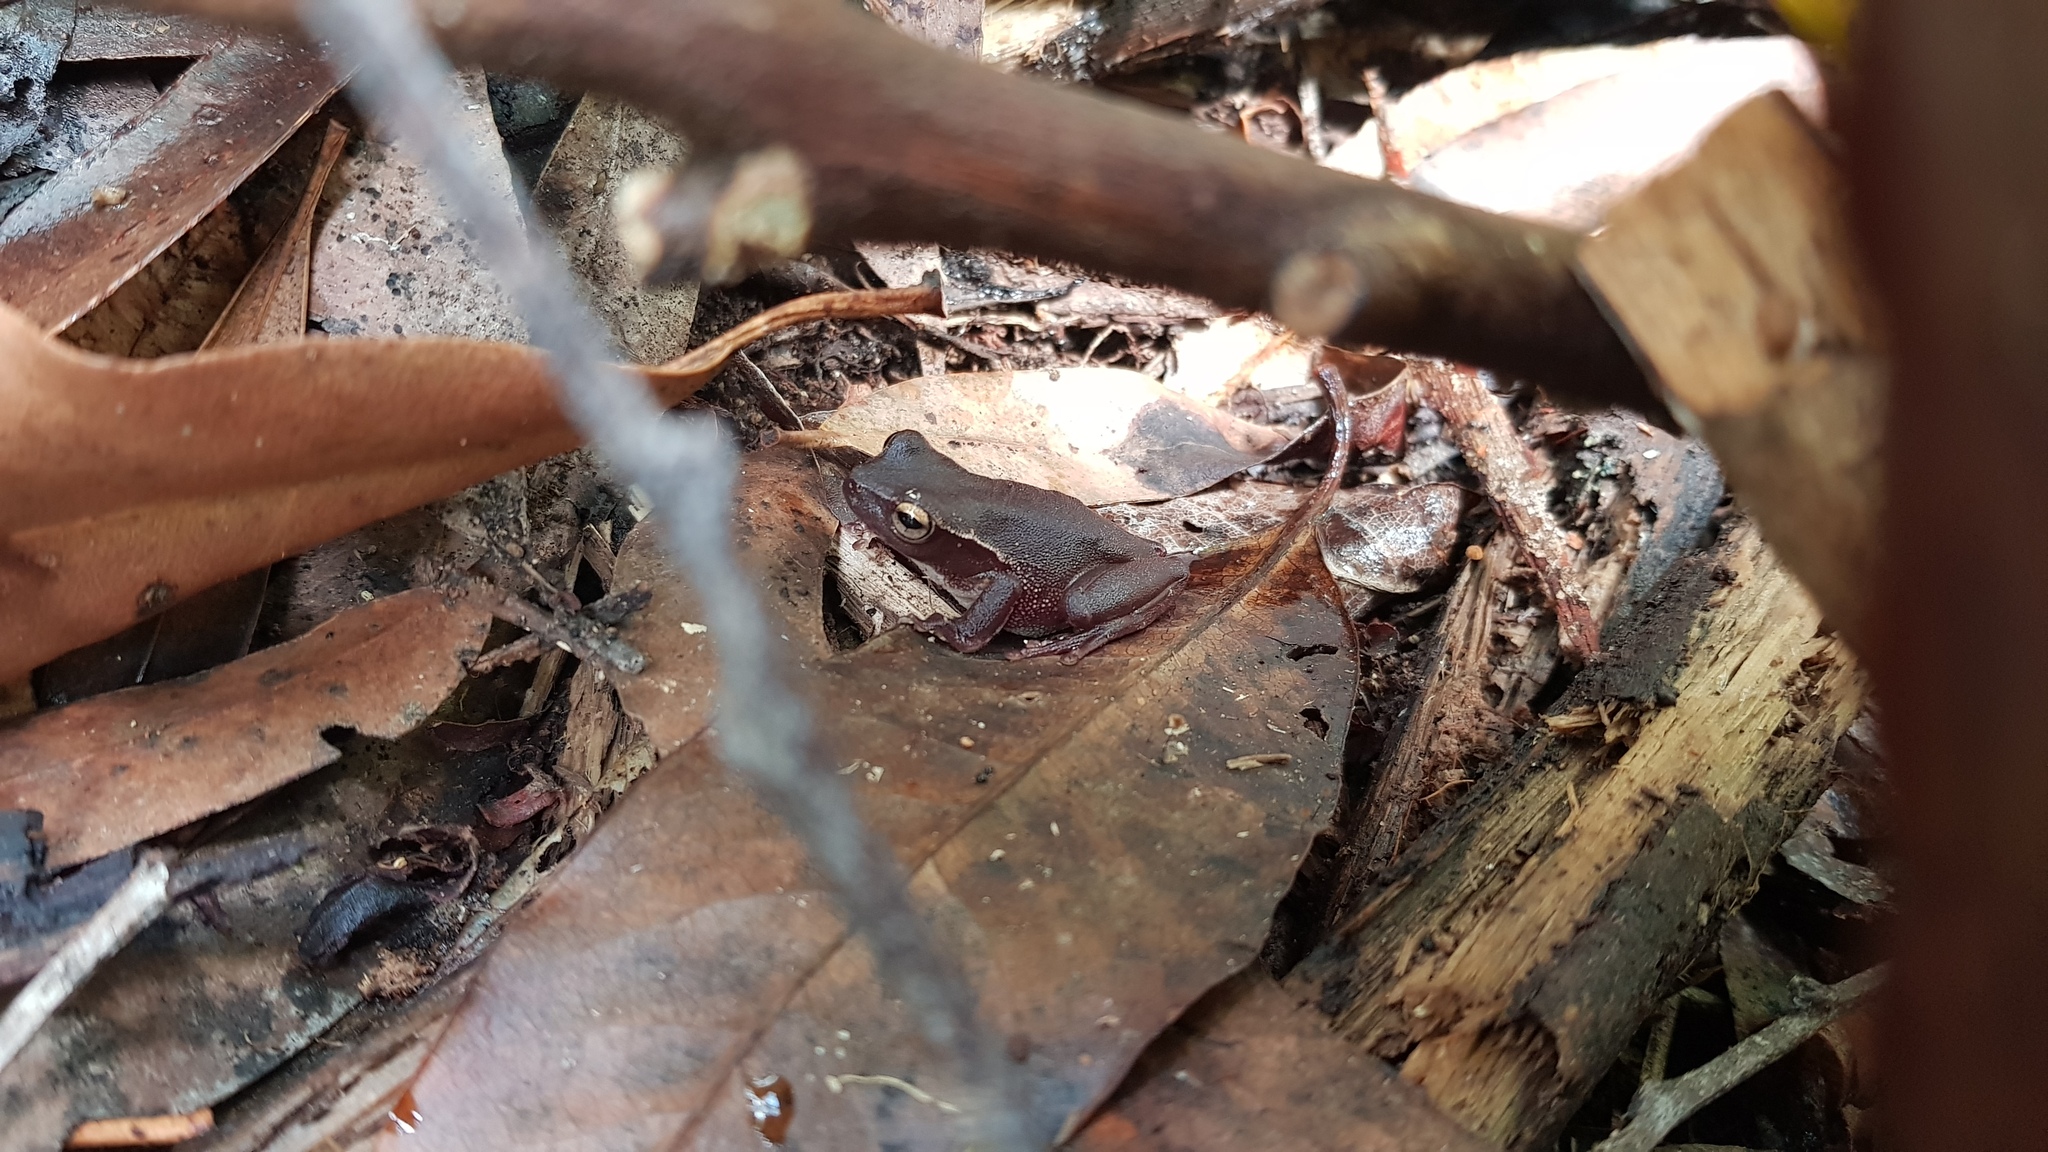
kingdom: Animalia
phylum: Chordata
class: Amphibia
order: Anura
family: Pelodryadidae
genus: Ranoidea
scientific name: Ranoidea phyllochroa
